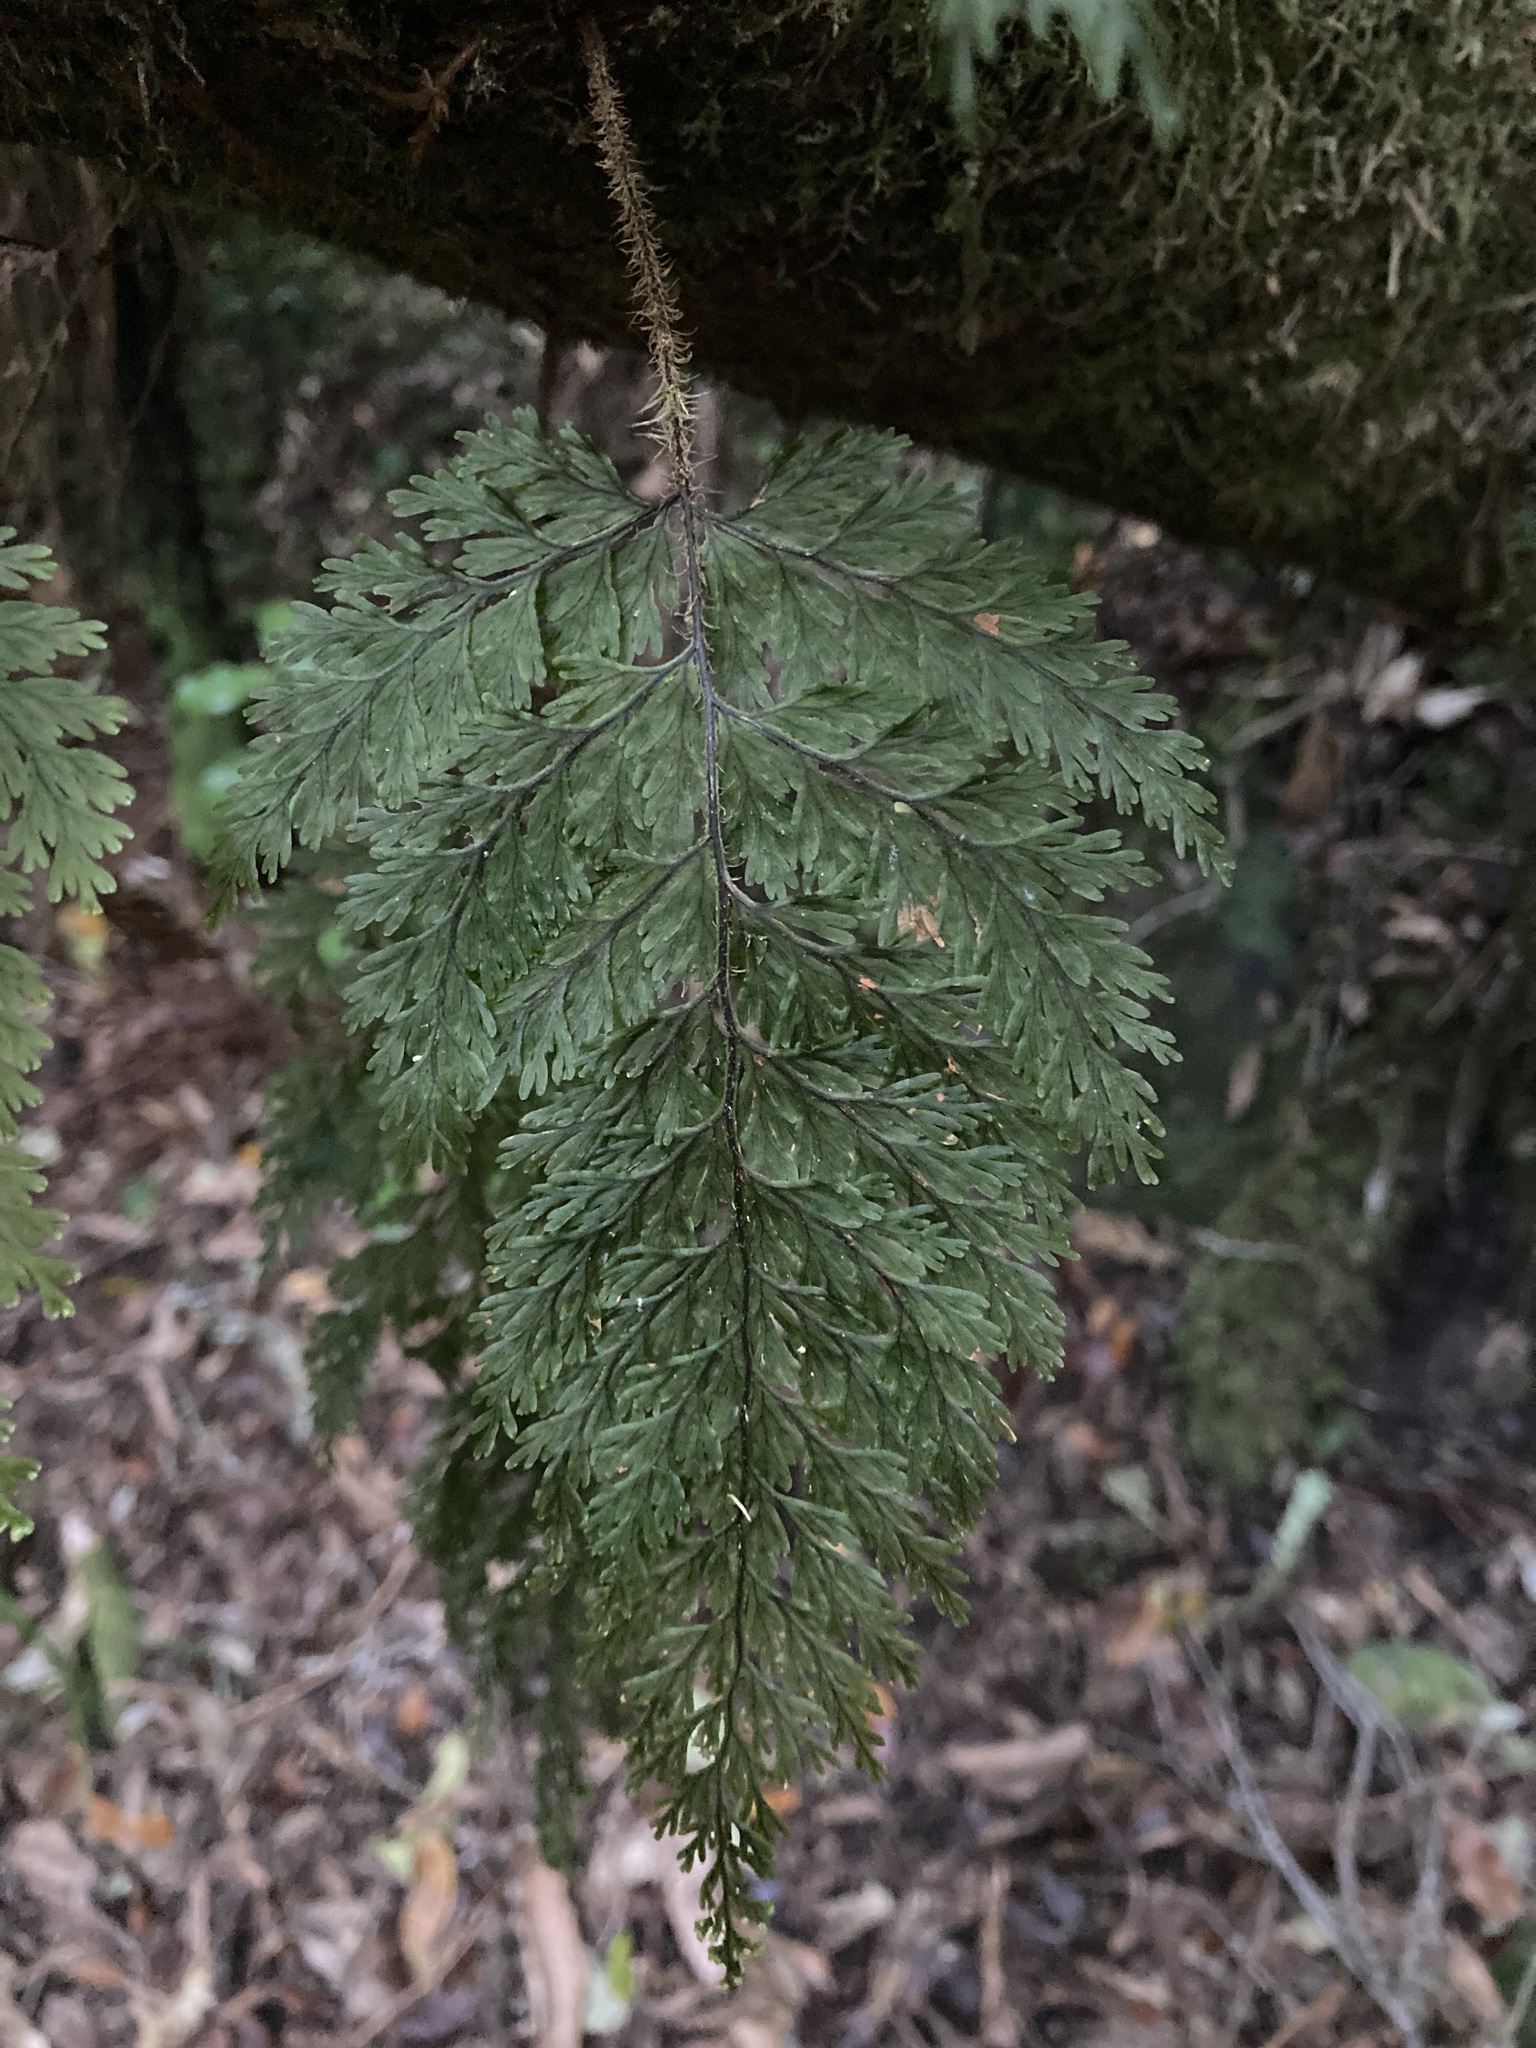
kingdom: Plantae
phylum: Tracheophyta
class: Polypodiopsida
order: Hymenophyllales
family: Hymenophyllaceae
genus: Hymenophyllum
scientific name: Hymenophyllum scabrum
